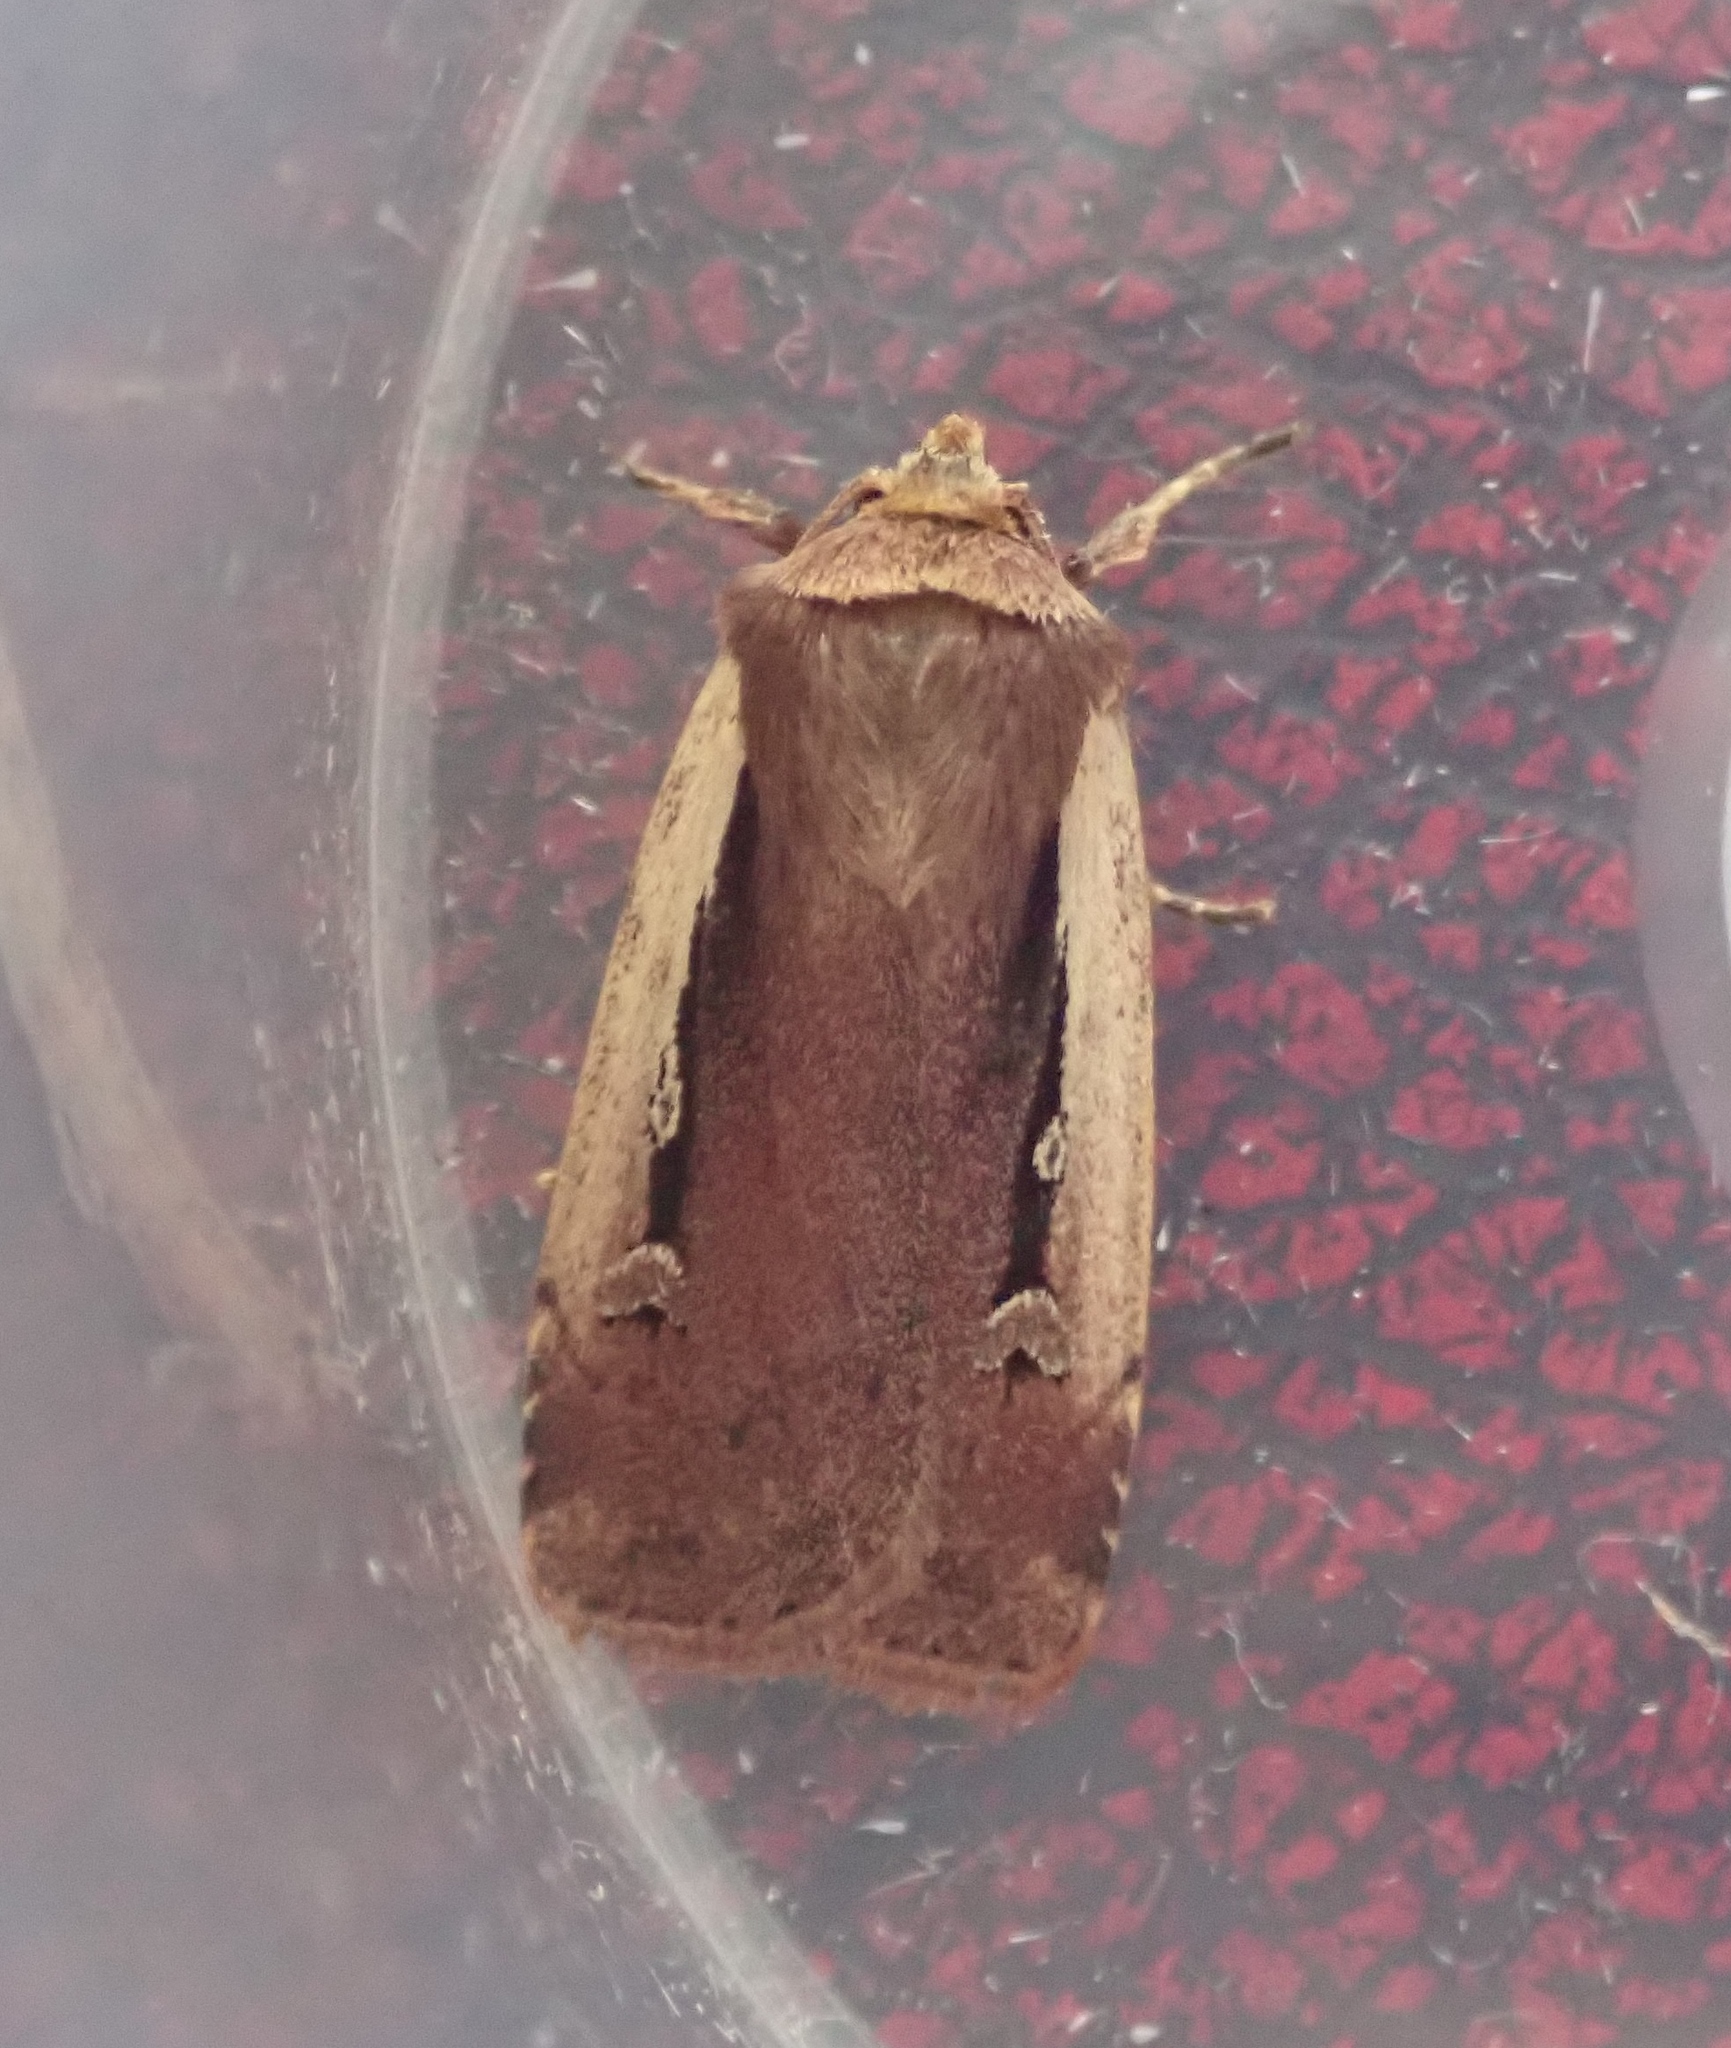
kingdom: Animalia
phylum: Arthropoda
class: Insecta
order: Lepidoptera
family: Noctuidae
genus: Ochropleura
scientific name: Ochropleura plecta
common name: Flame shoulder
